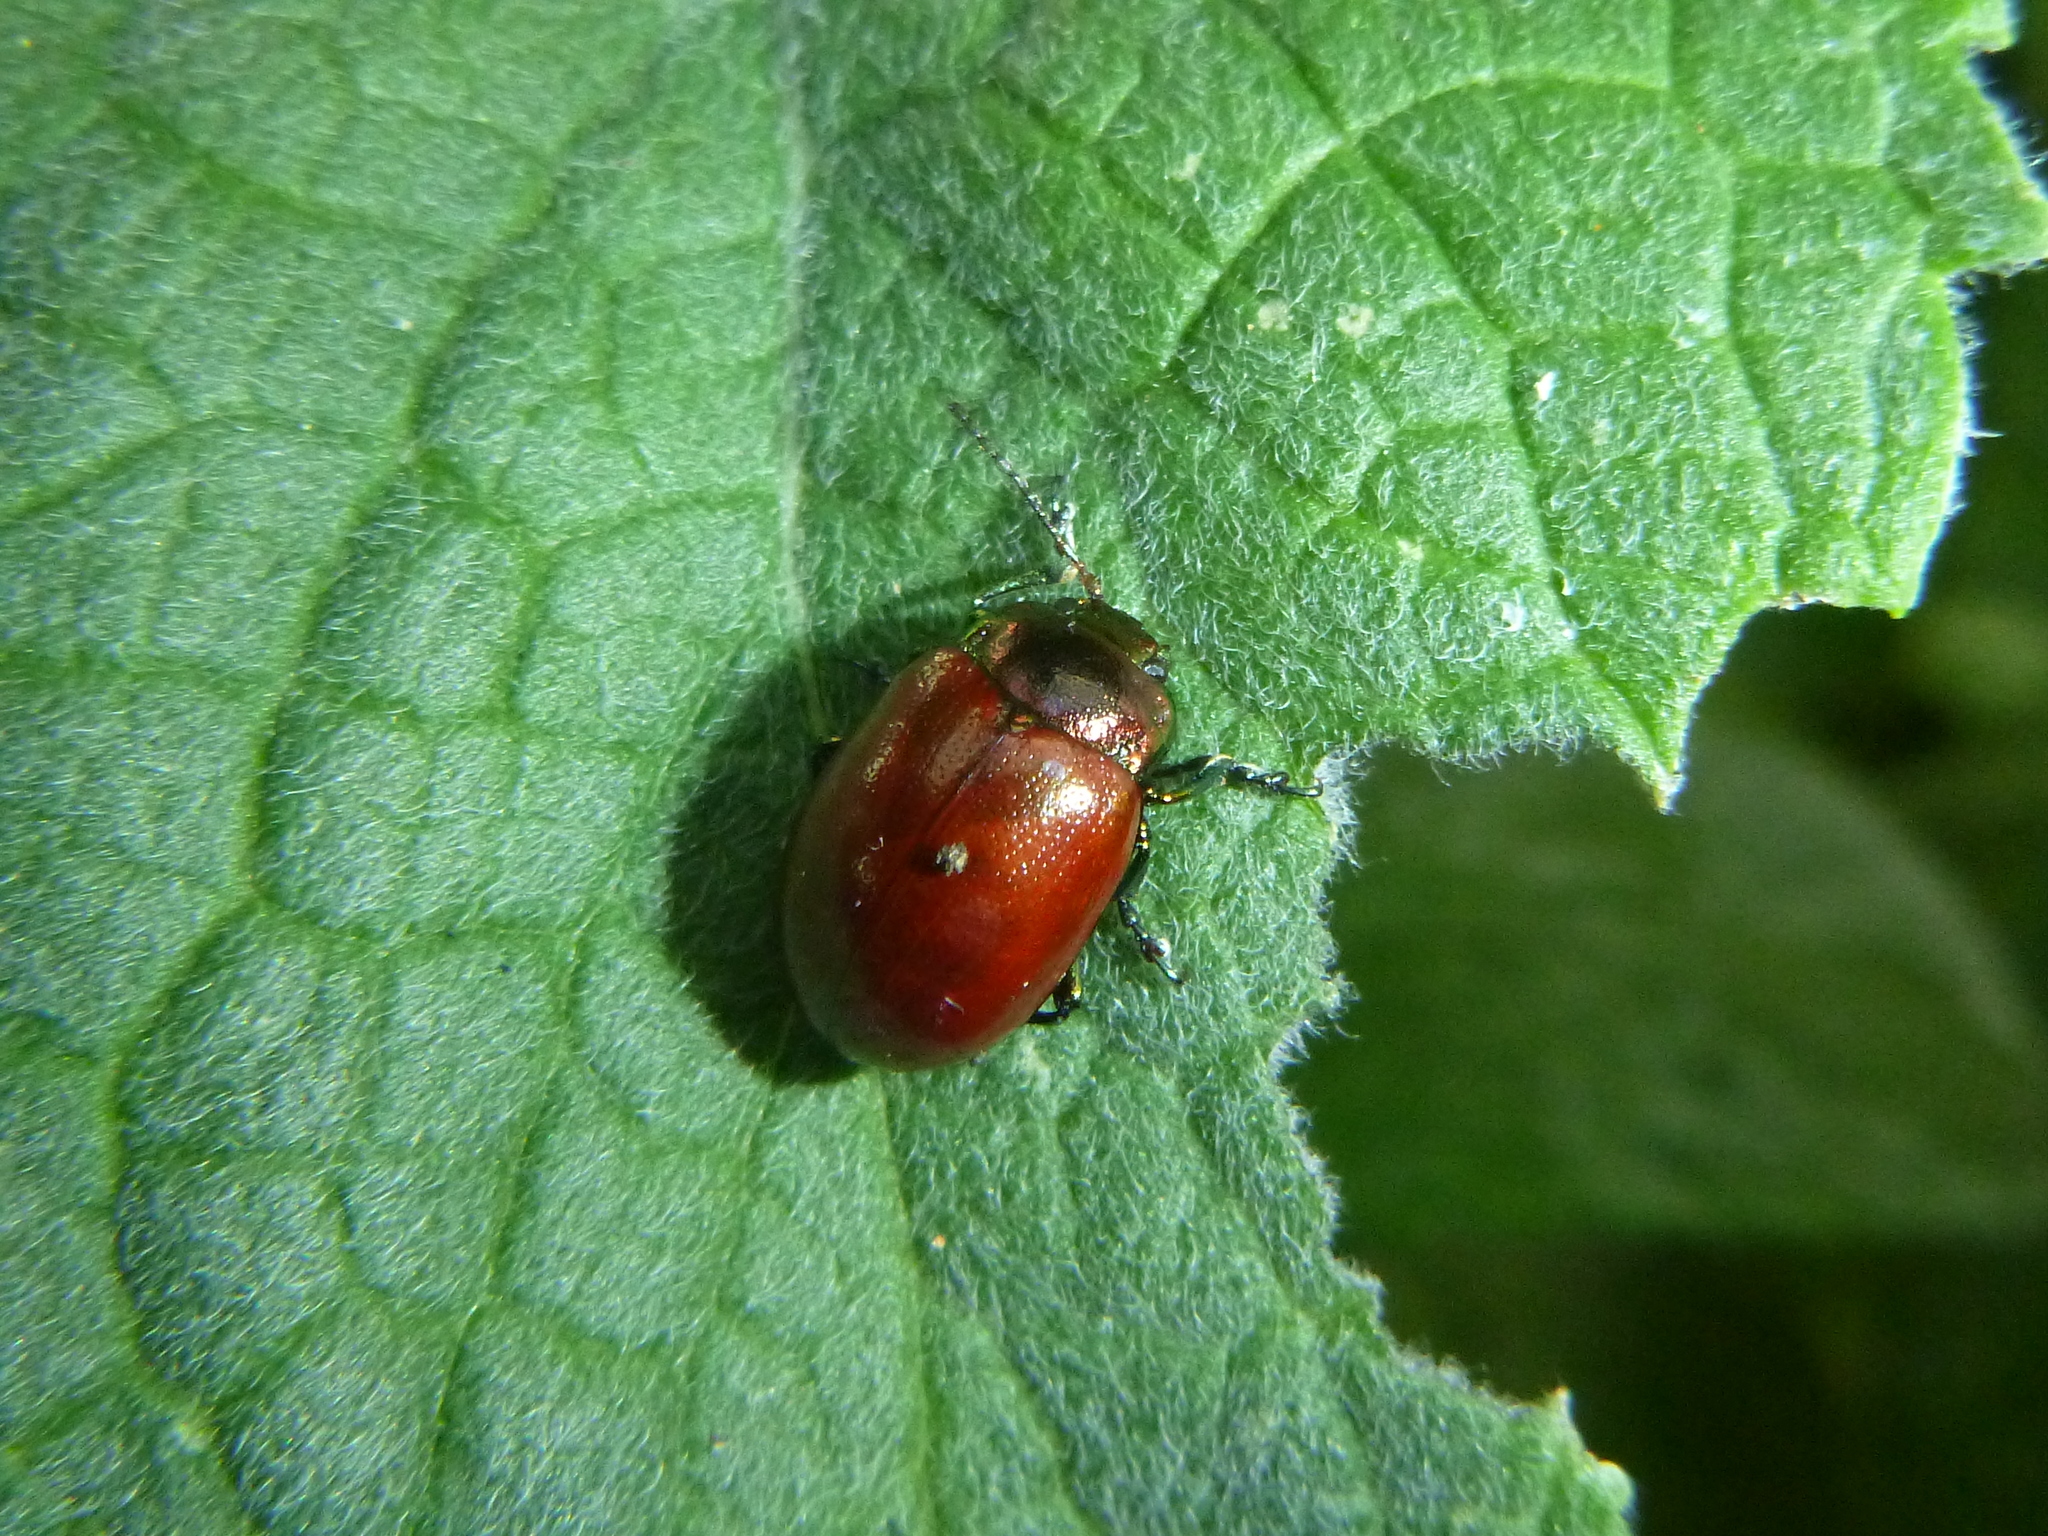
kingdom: Animalia
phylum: Arthropoda
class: Insecta
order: Coleoptera
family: Chrysomelidae
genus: Chrysomela
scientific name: Chrysomela polita
